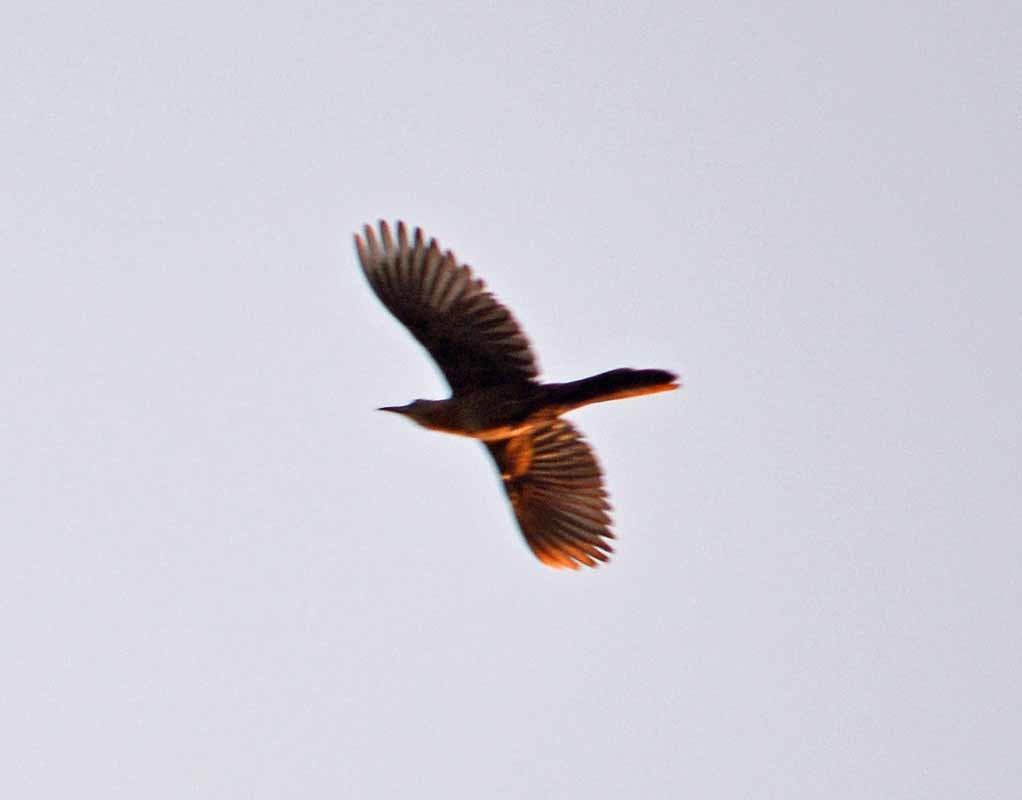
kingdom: Animalia
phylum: Chordata
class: Aves
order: Passeriformes
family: Icteridae
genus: Quiscalus
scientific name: Quiscalus mexicanus
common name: Great-tailed grackle
